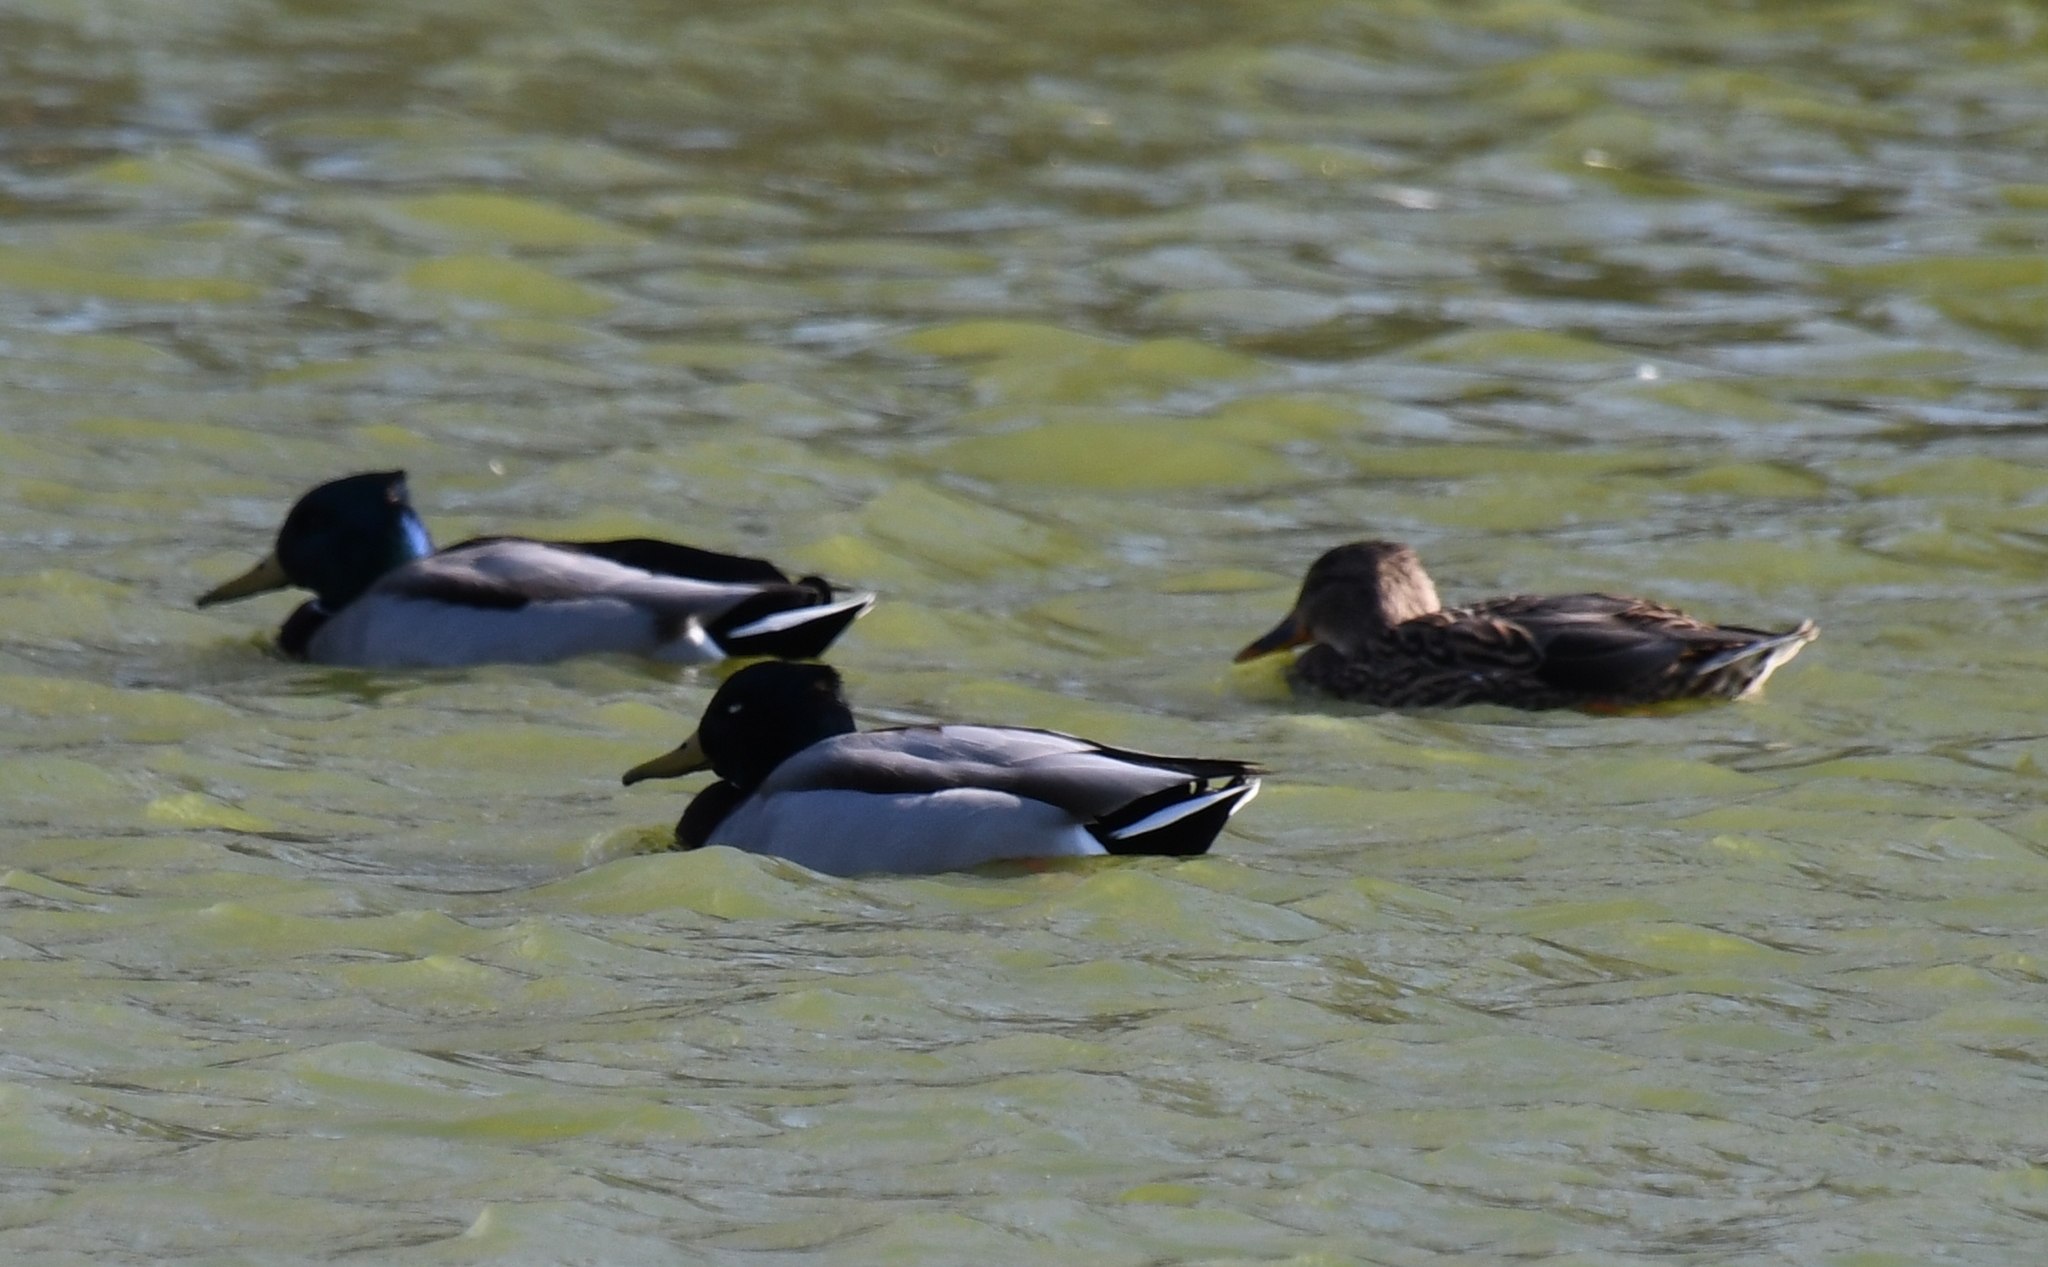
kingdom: Animalia
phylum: Chordata
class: Aves
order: Anseriformes
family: Anatidae
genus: Anas
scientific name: Anas platyrhynchos
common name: Mallard
